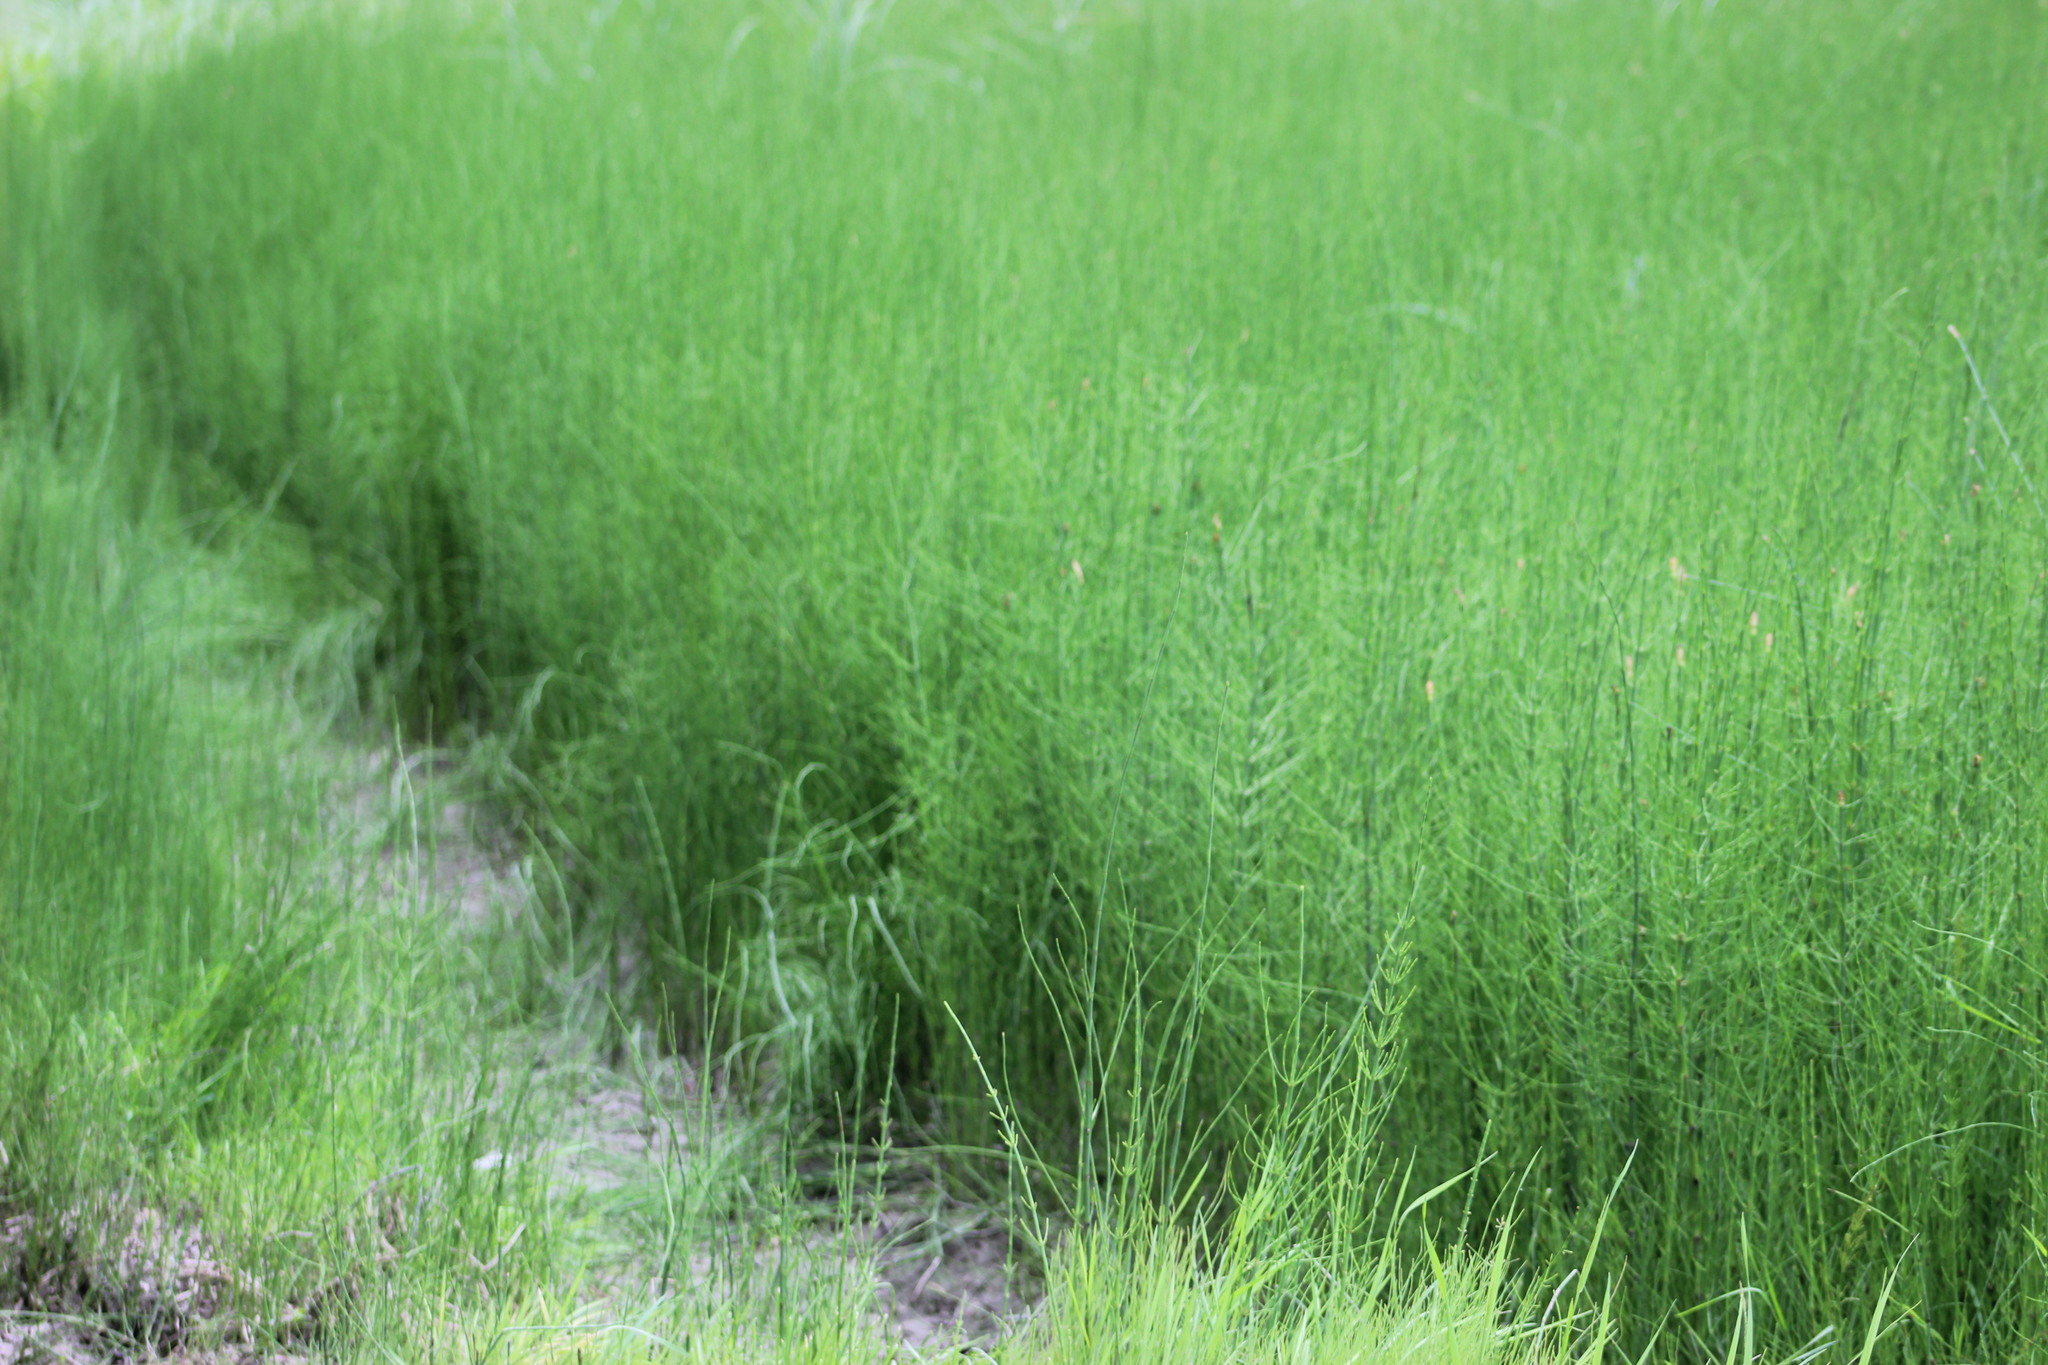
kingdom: Plantae
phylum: Tracheophyta
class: Polypodiopsida
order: Equisetales
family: Equisetaceae
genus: Equisetum
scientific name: Equisetum fluviatile
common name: Water horsetail
